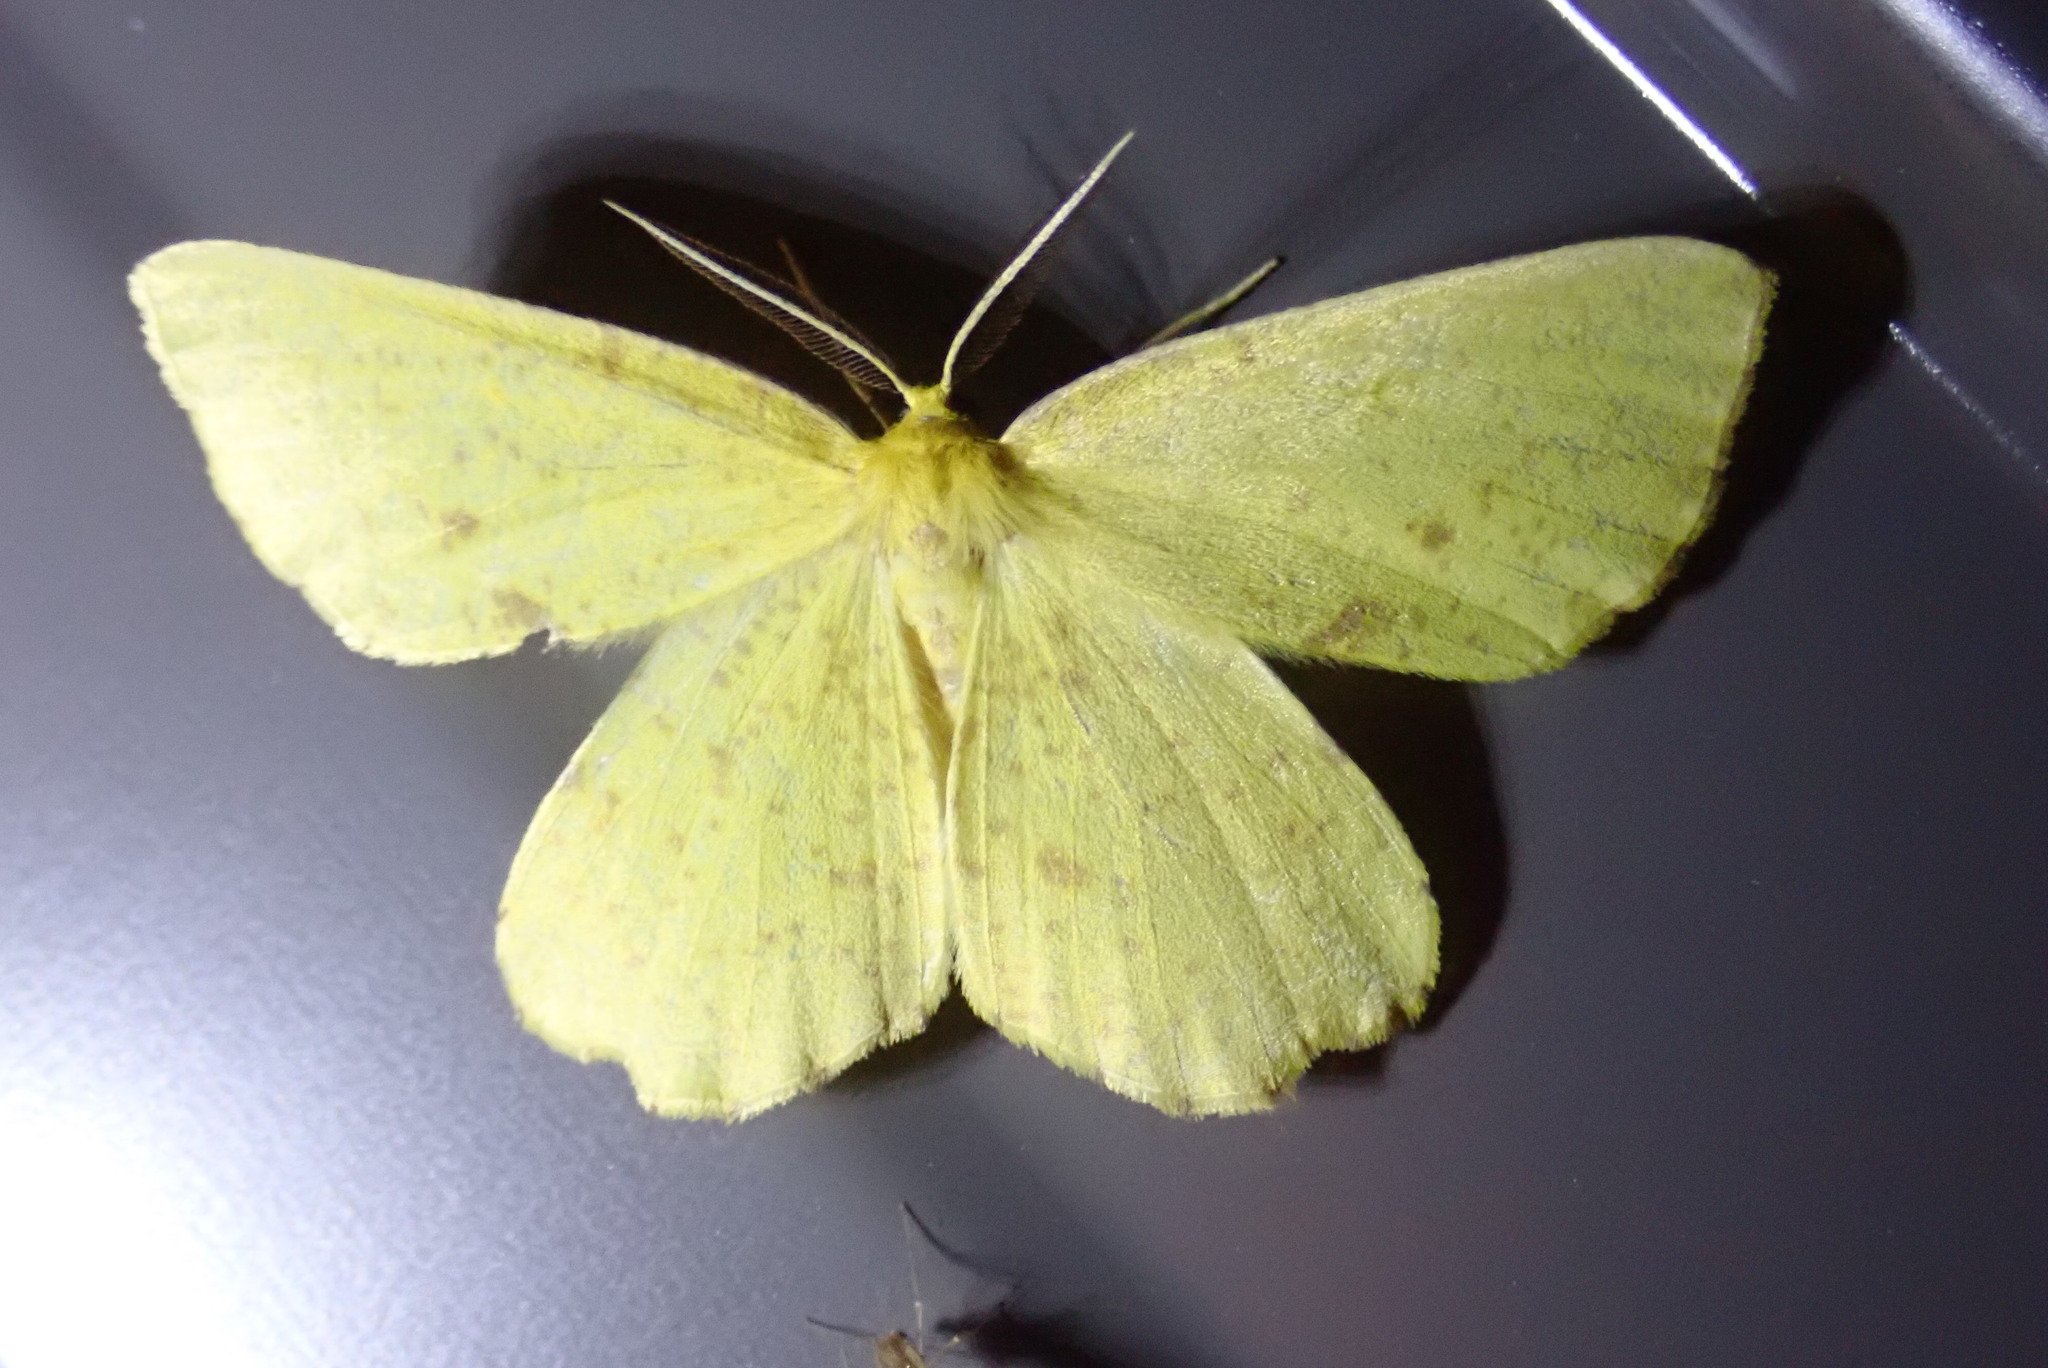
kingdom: Animalia
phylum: Arthropoda
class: Insecta
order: Lepidoptera
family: Geometridae
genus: Xanthotype
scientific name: Xanthotype
